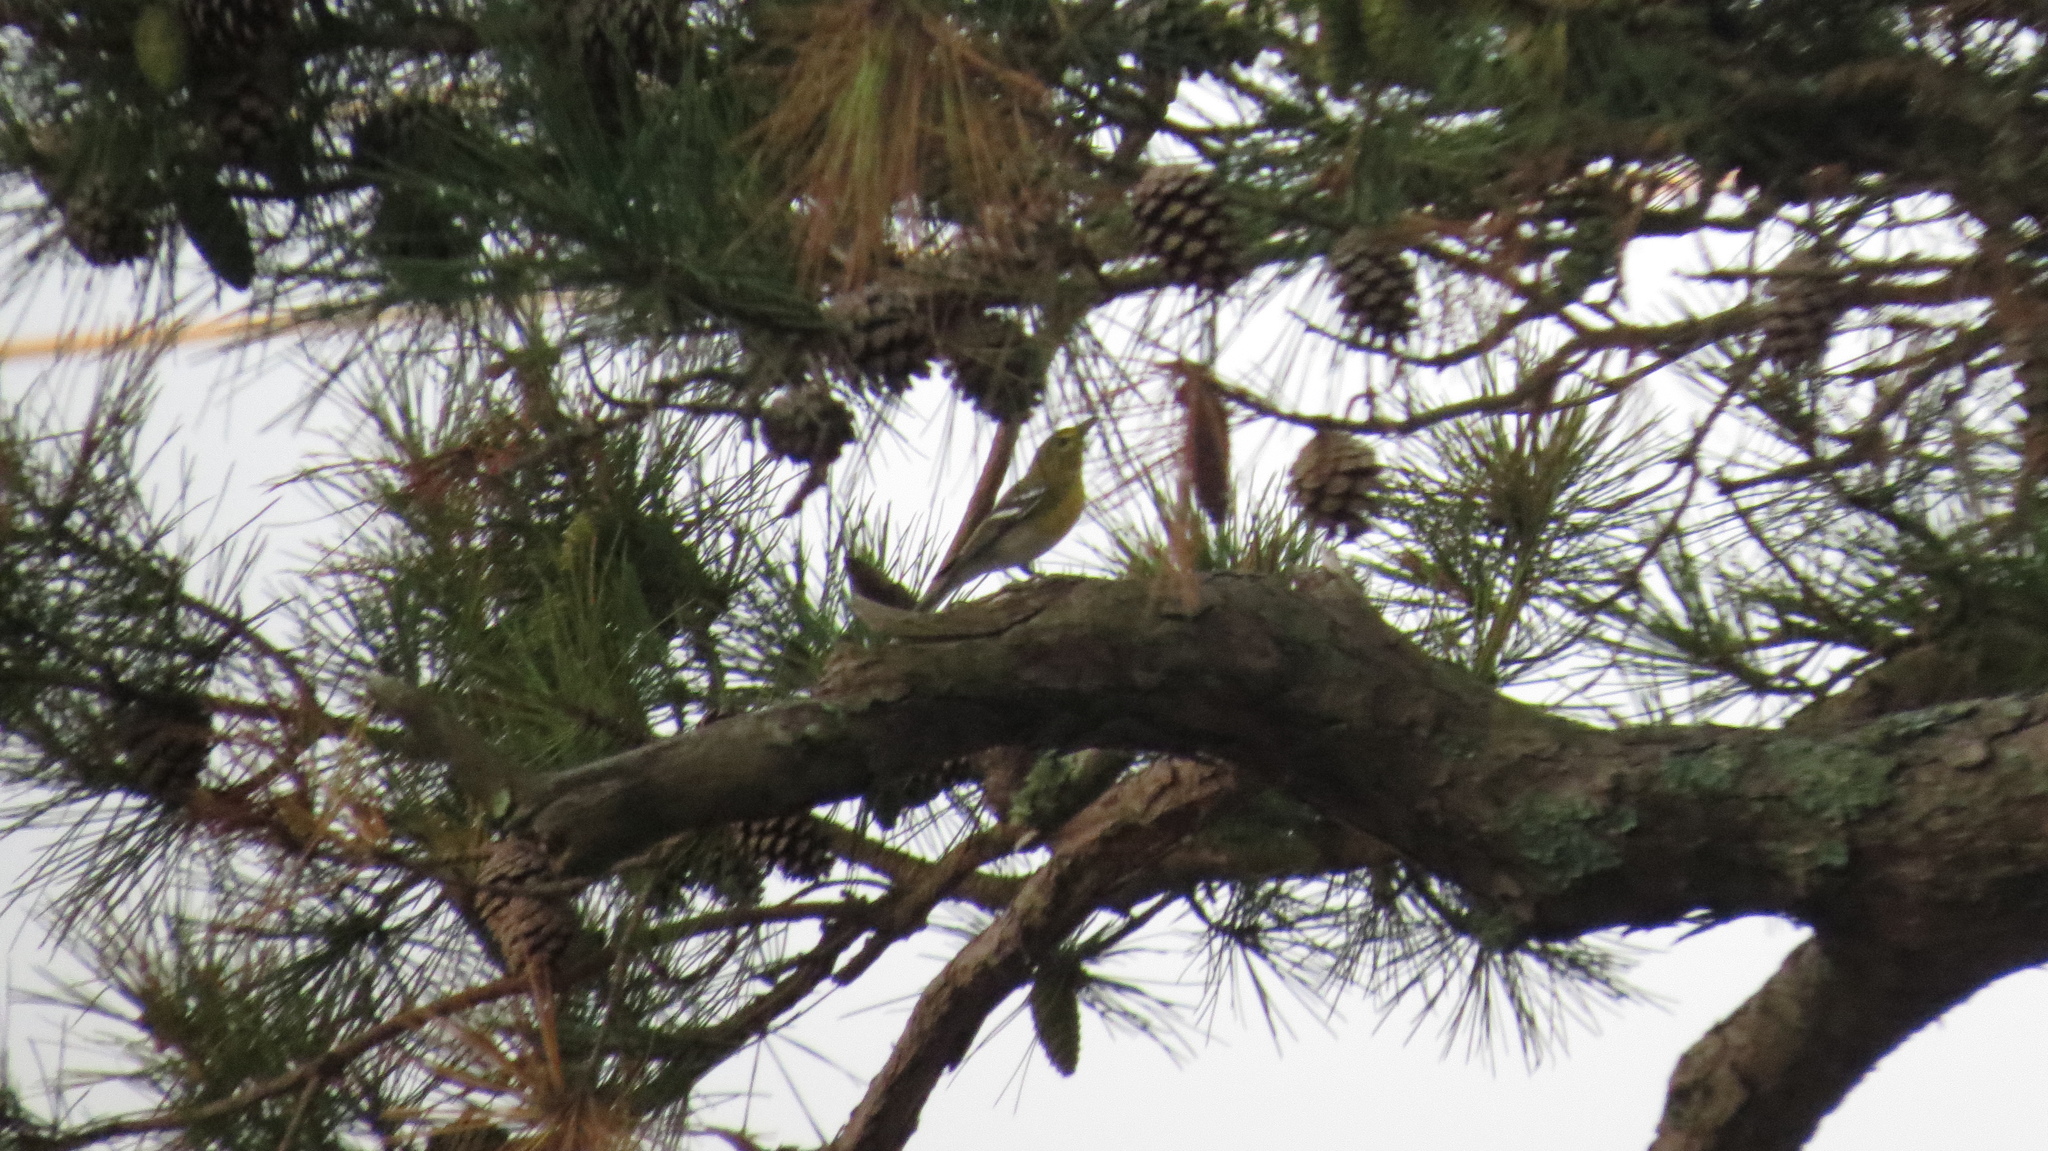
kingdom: Animalia
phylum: Chordata
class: Aves
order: Passeriformes
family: Vireonidae
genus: Vireo
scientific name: Vireo flavifrons
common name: Yellow-throated vireo
